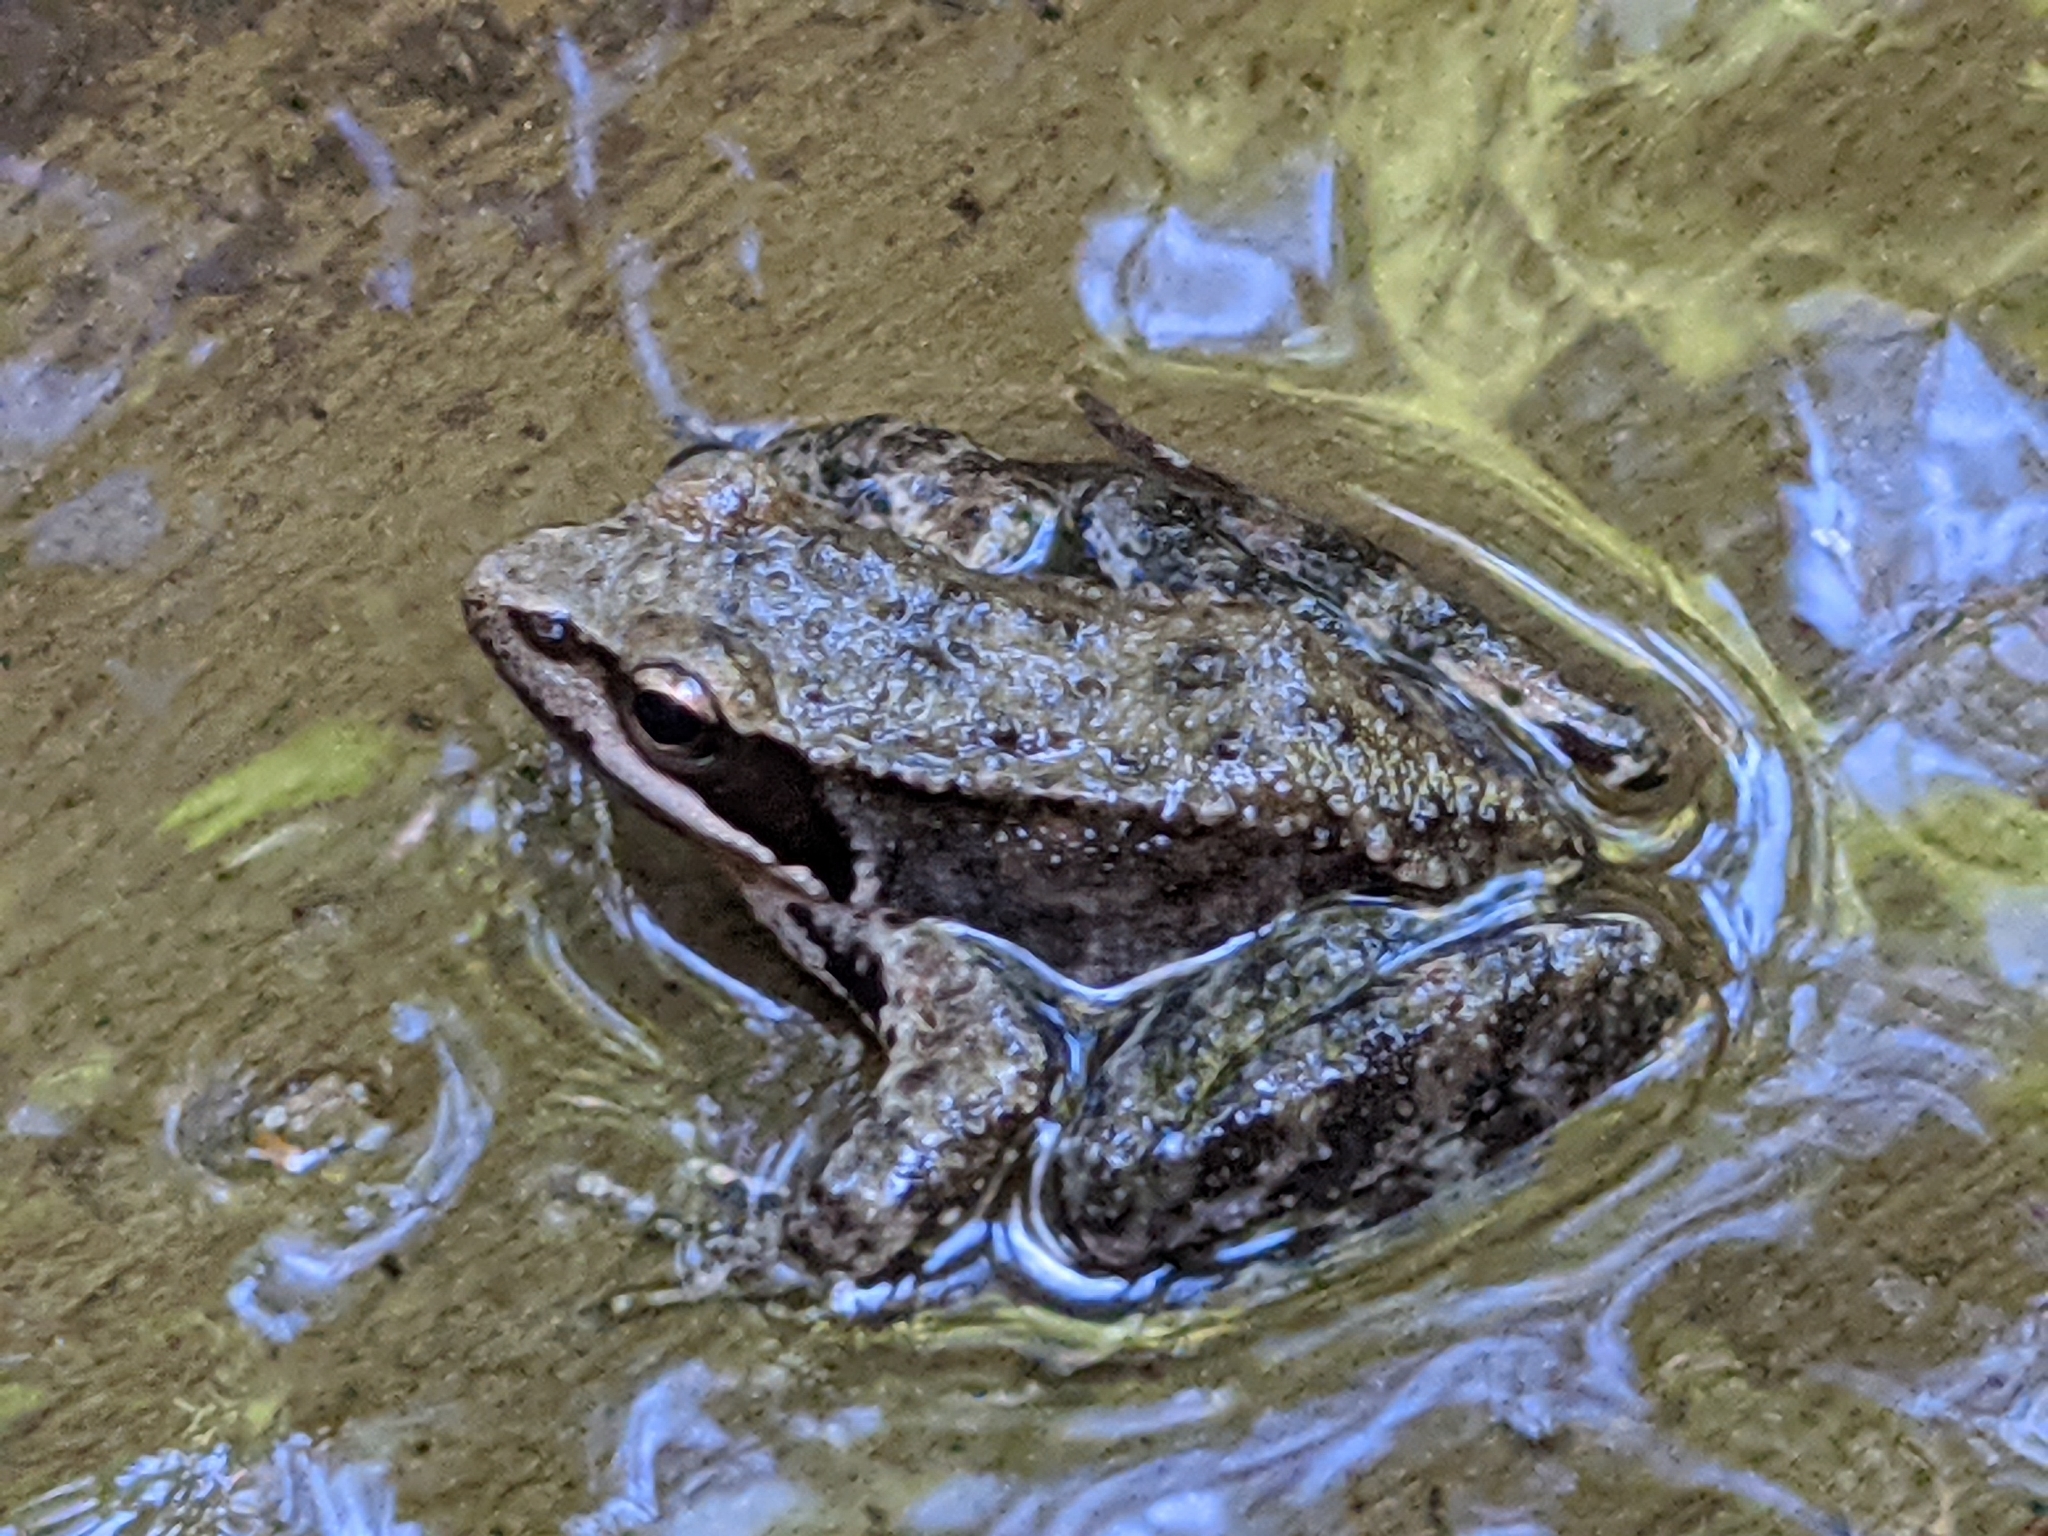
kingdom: Animalia
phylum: Chordata
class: Amphibia
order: Anura
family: Ranidae
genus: Rana
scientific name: Rana iberica
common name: Iberian frog
